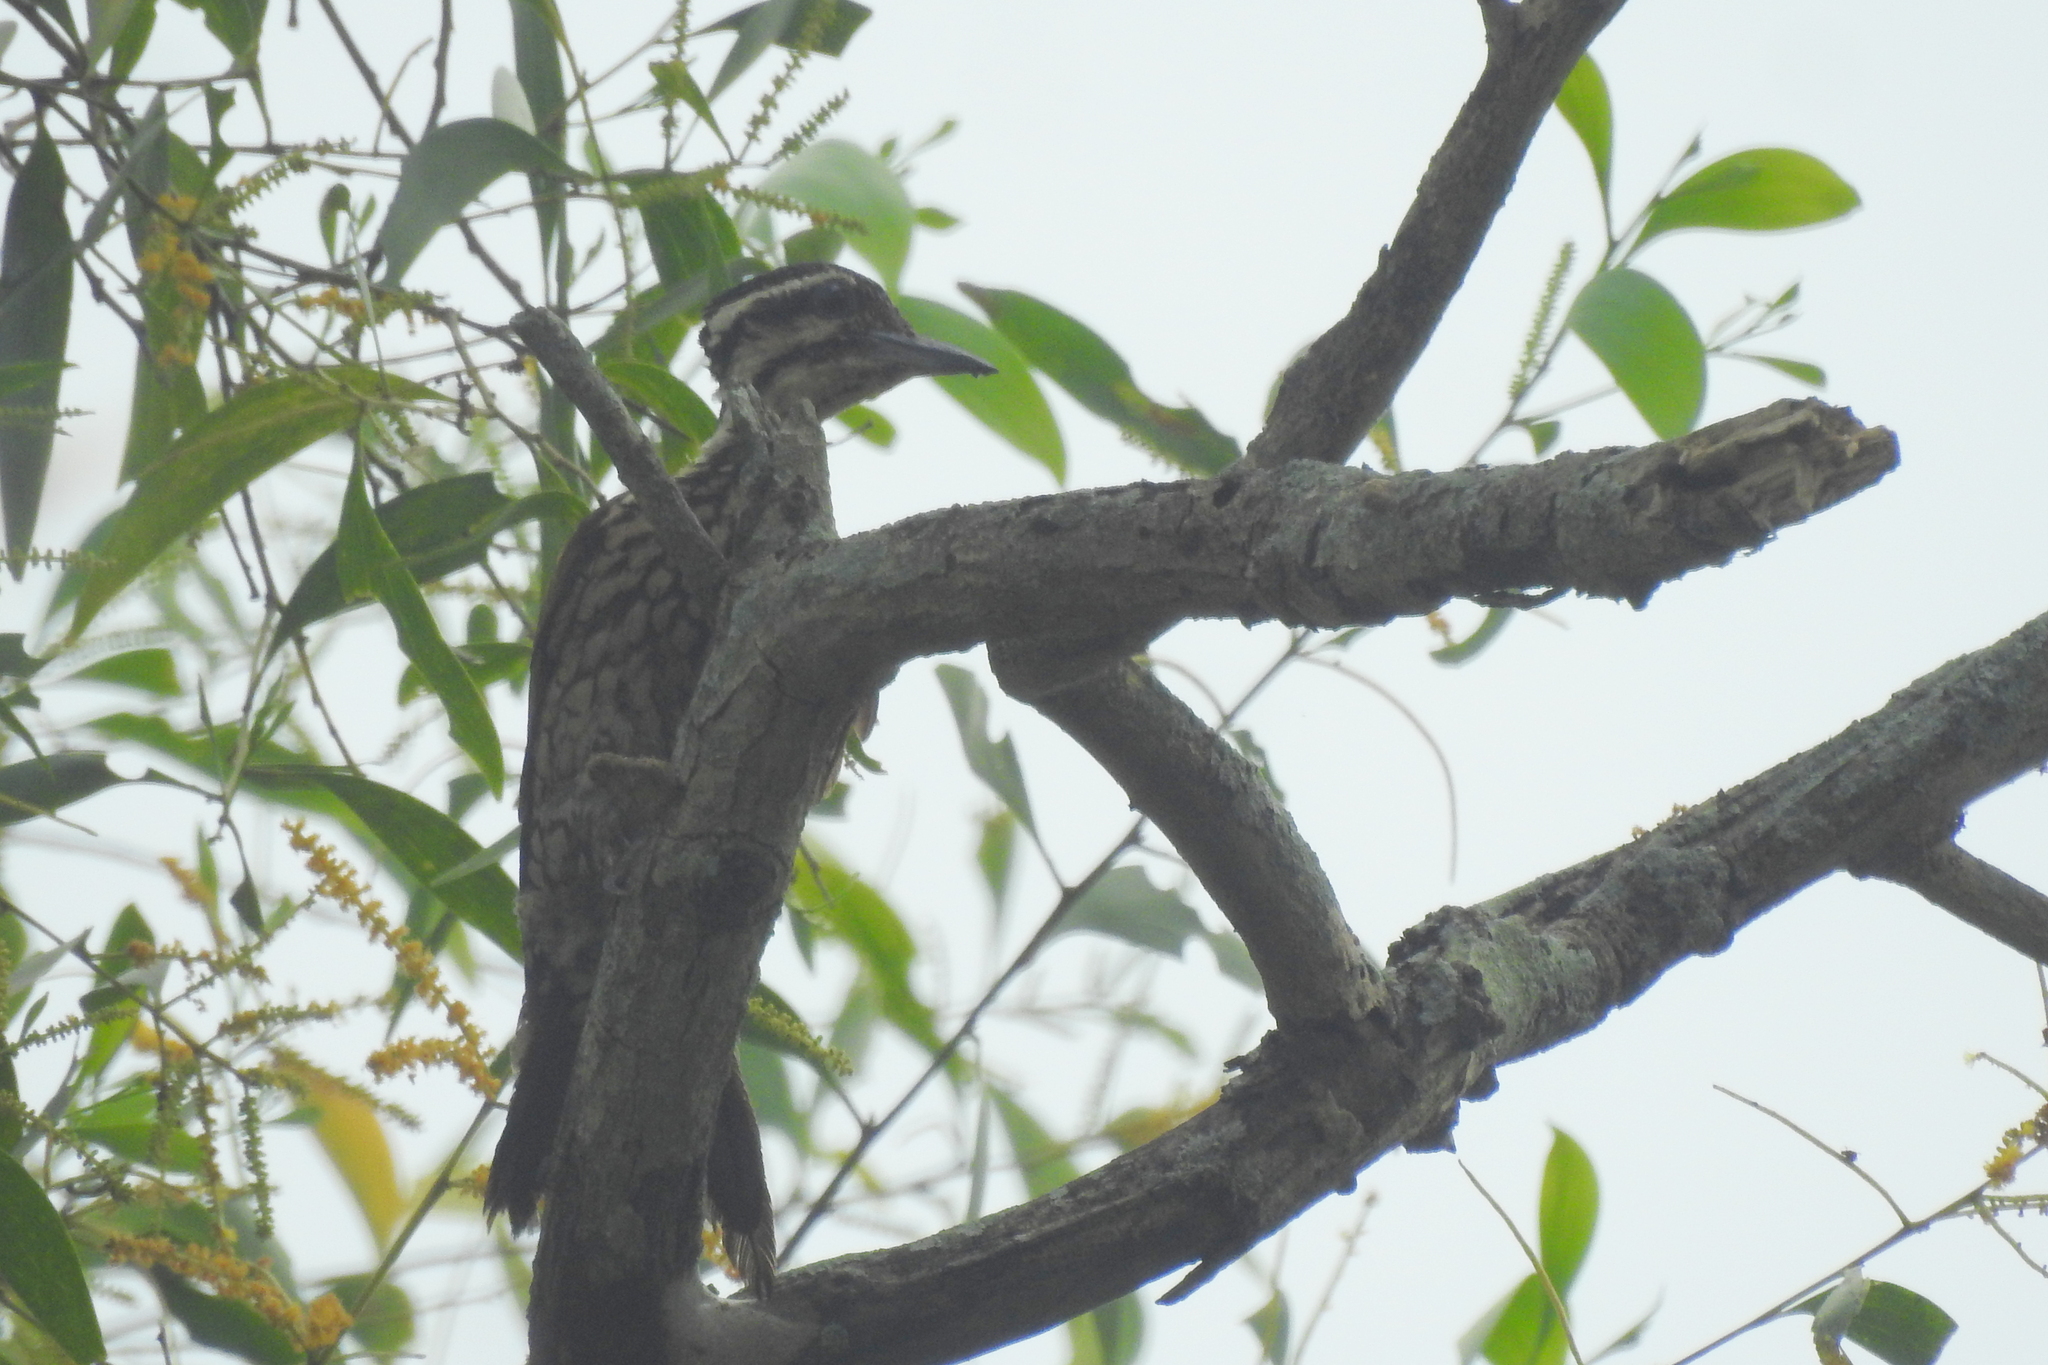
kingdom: Animalia
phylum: Chordata
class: Aves
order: Piciformes
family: Picidae
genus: Dinopium
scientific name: Dinopium javanense
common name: Common flameback
